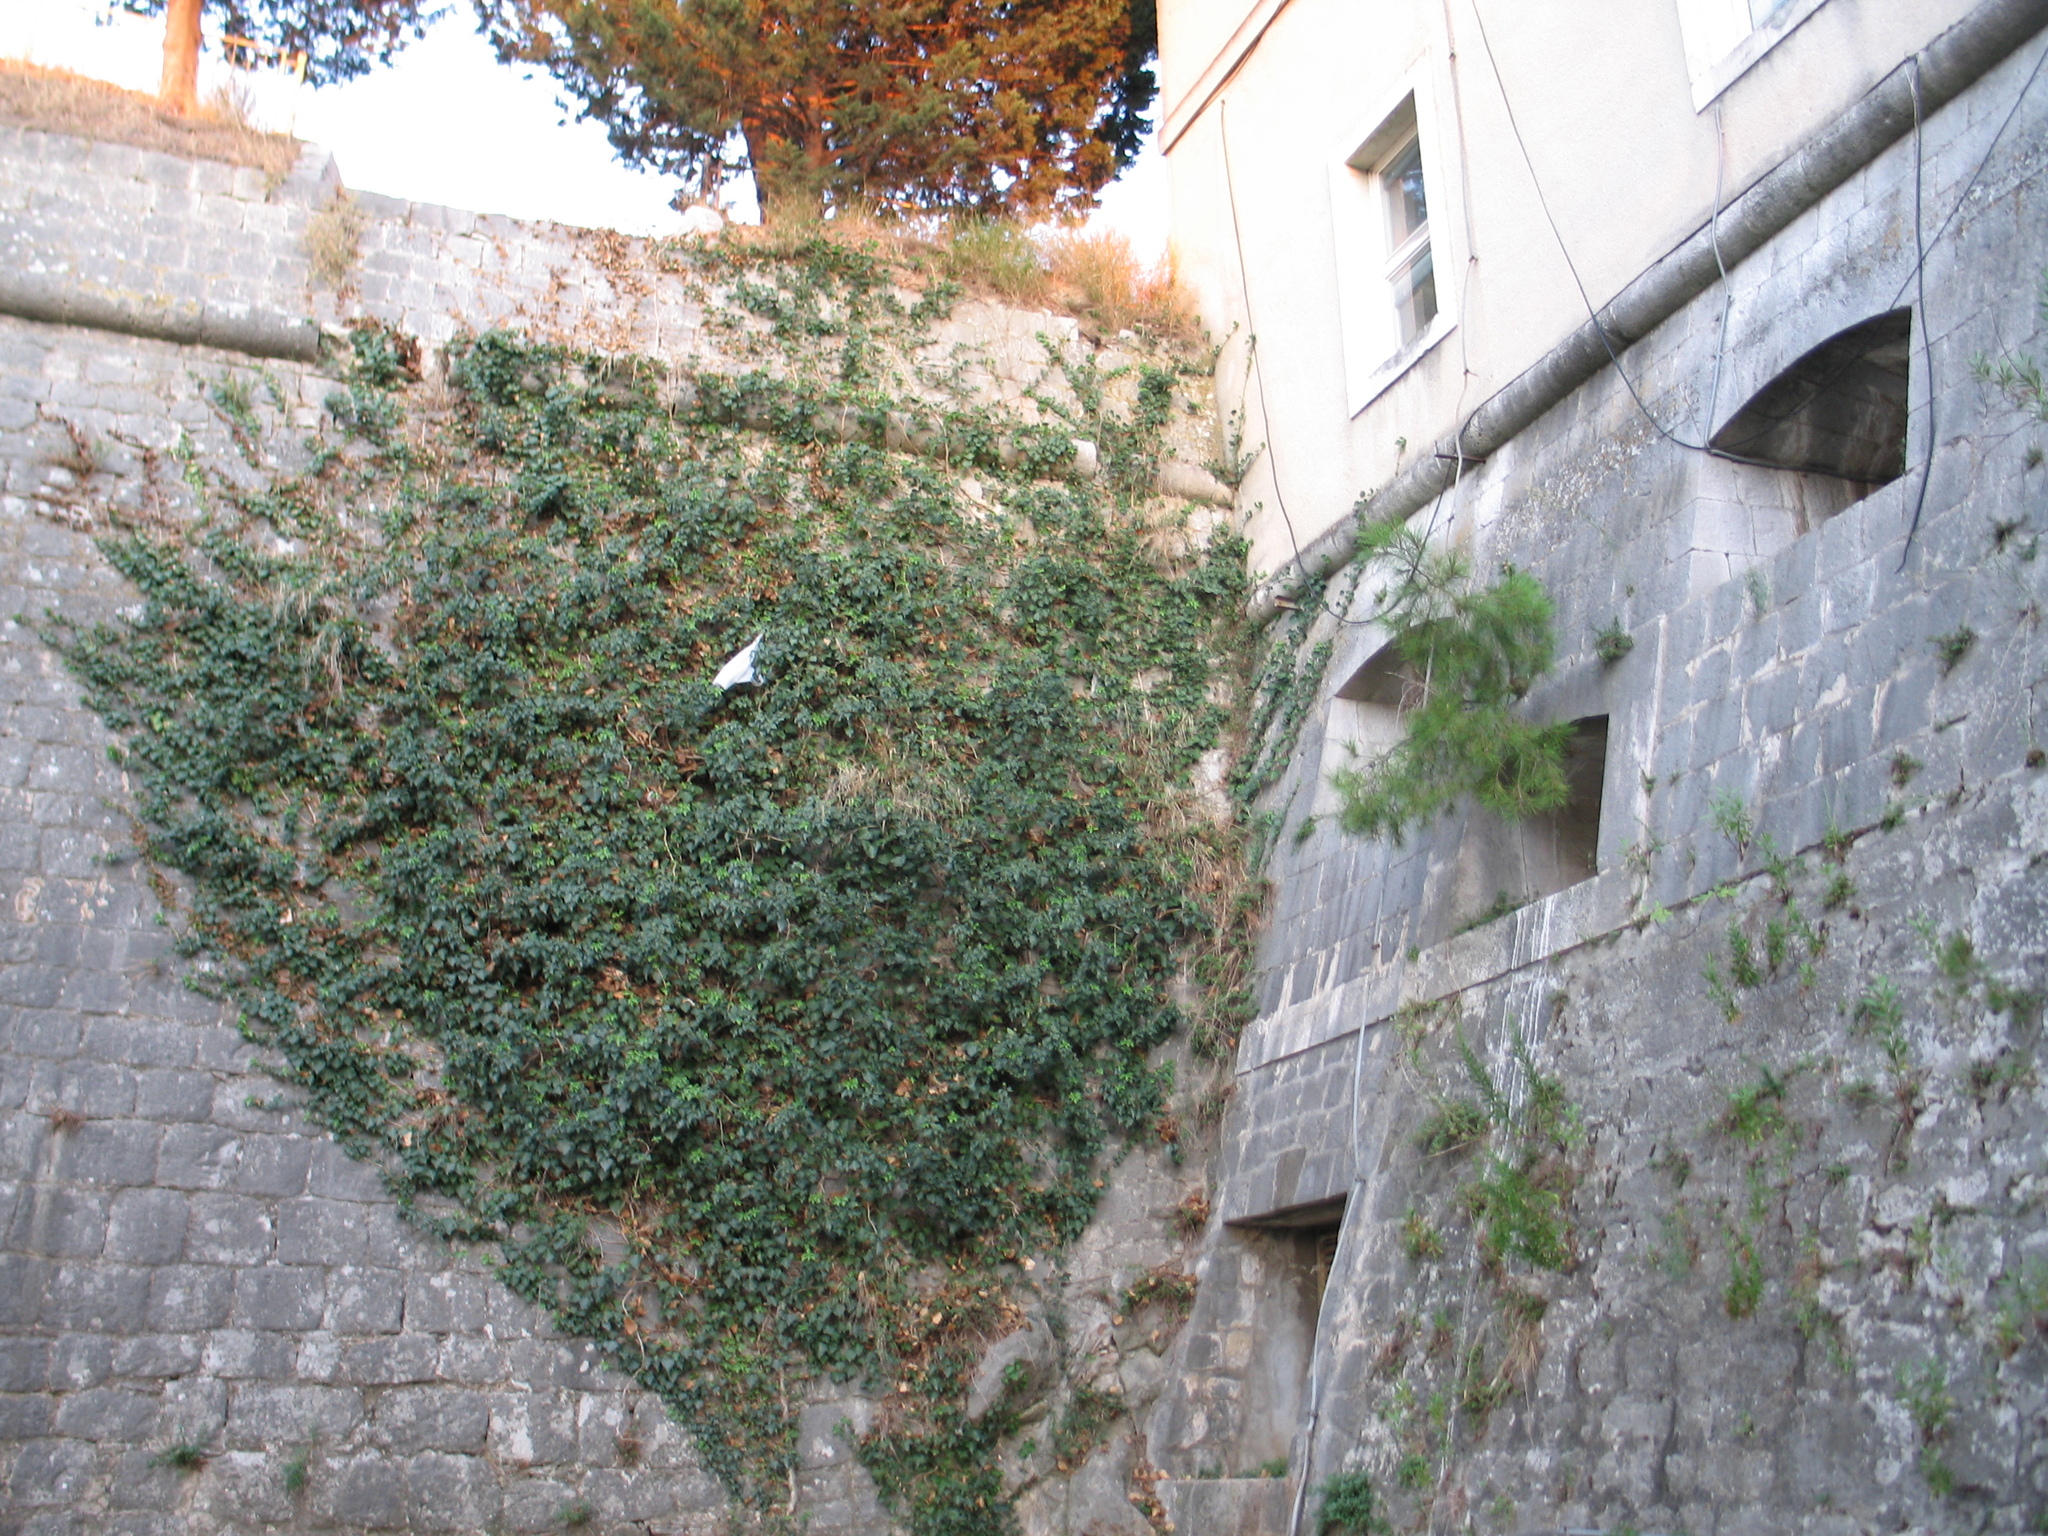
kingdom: Plantae
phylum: Tracheophyta
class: Magnoliopsida
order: Apiales
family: Araliaceae
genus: Hedera
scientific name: Hedera helix
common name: Ivy
